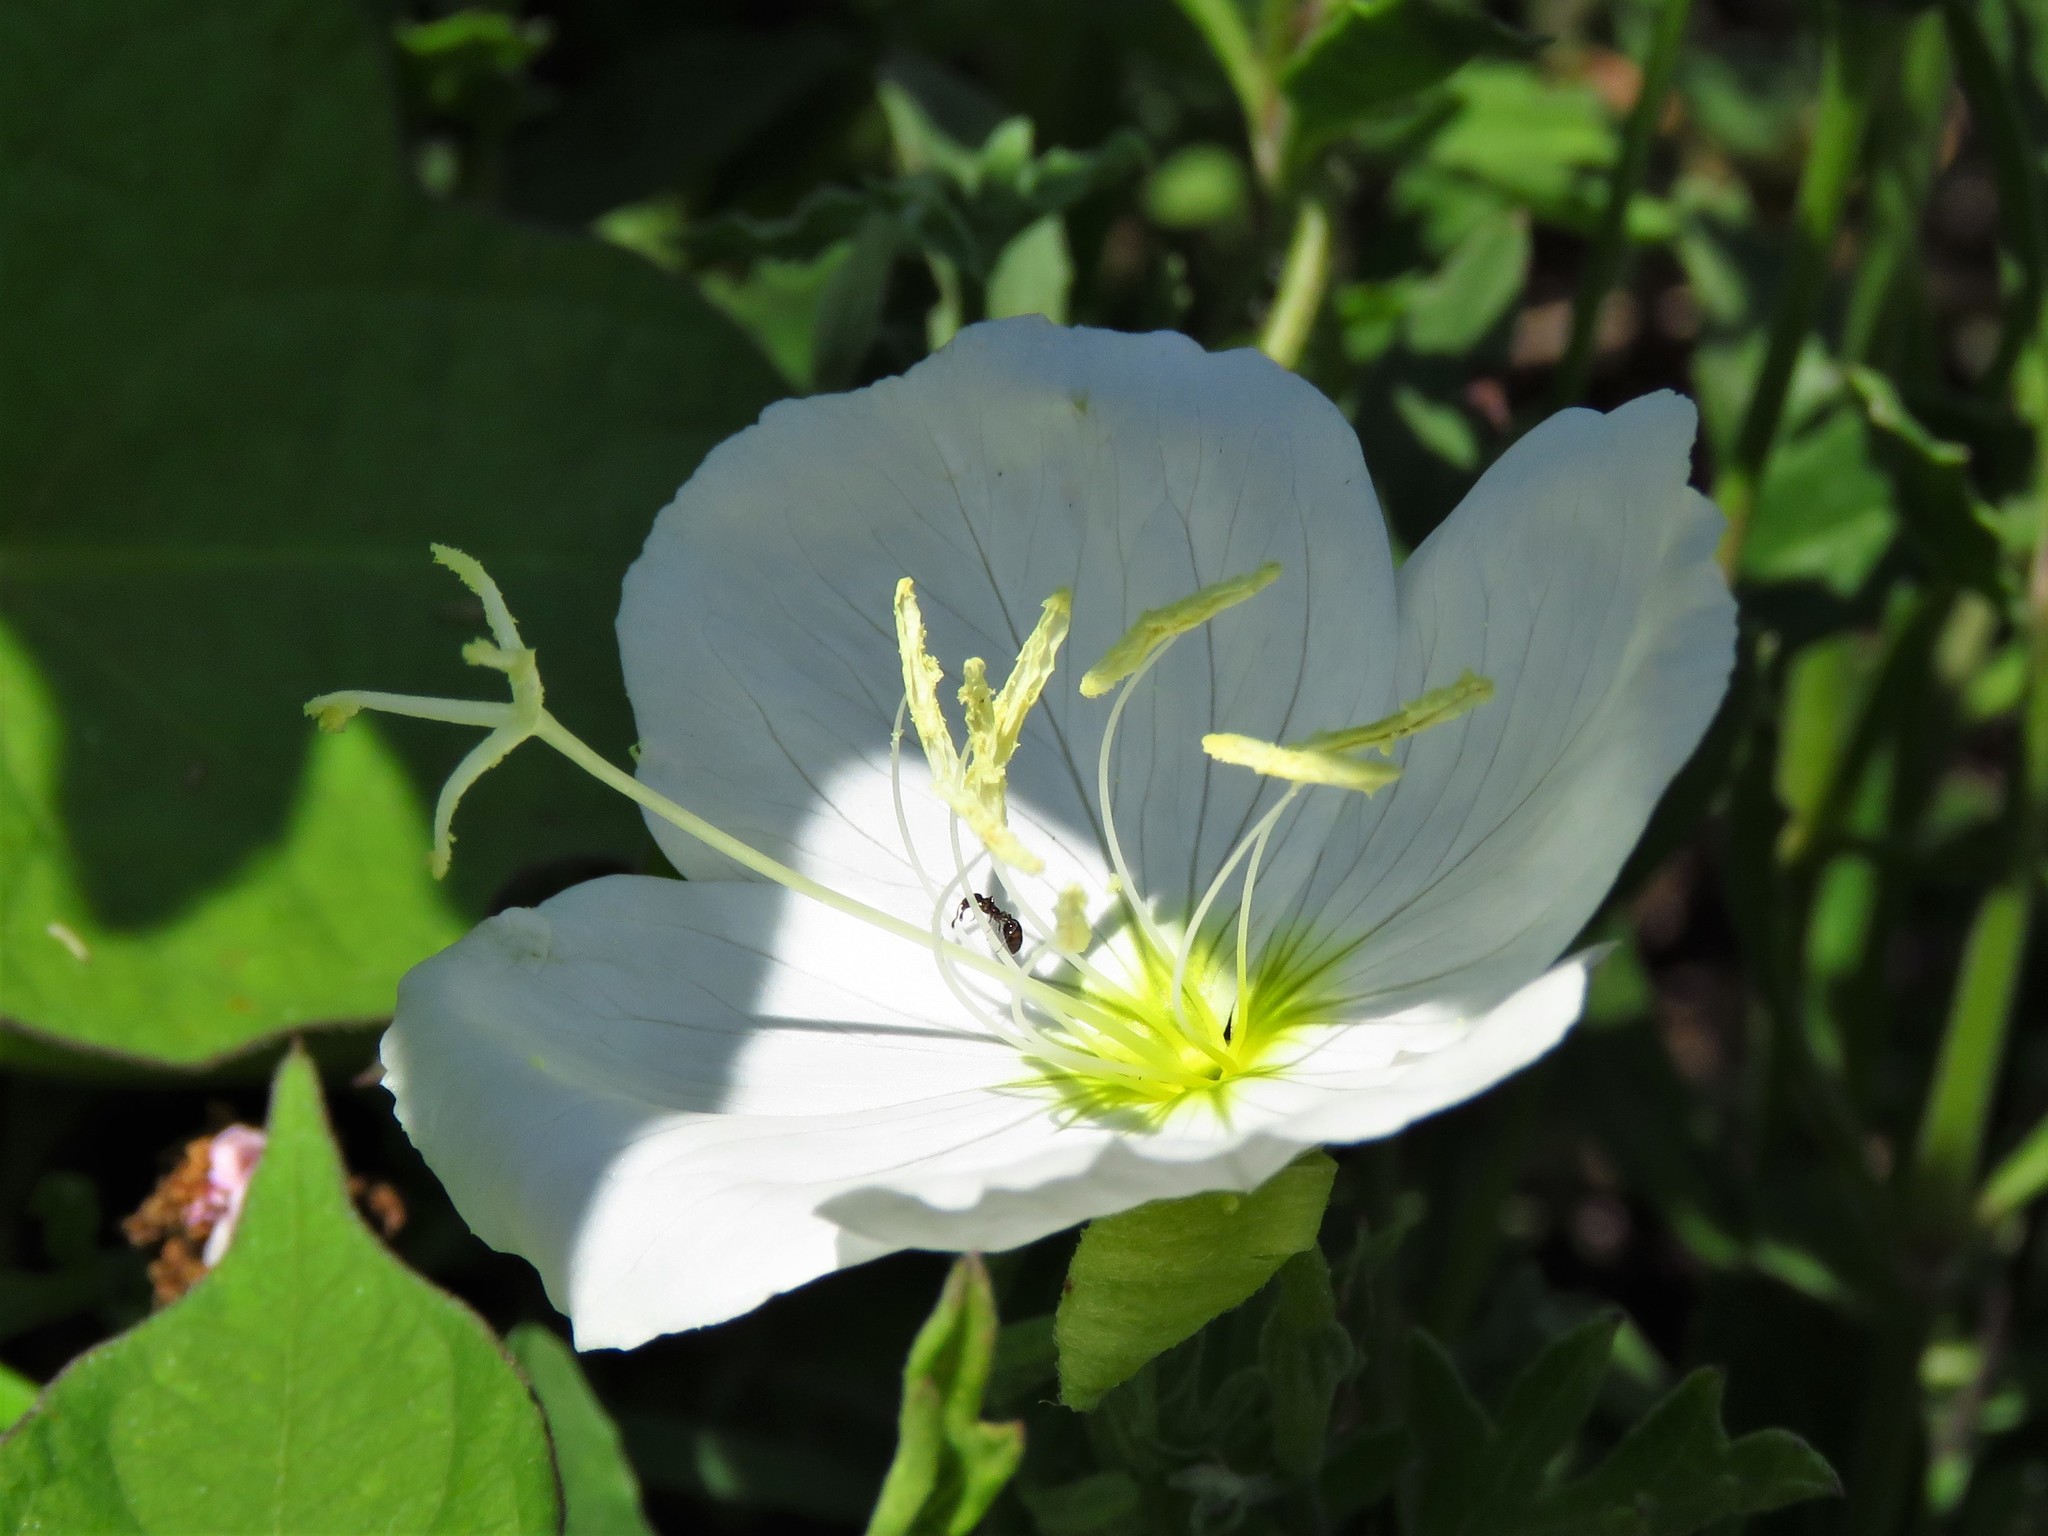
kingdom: Plantae
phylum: Tracheophyta
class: Magnoliopsida
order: Myrtales
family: Onagraceae
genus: Oenothera
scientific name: Oenothera speciosa
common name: White evening-primrose
